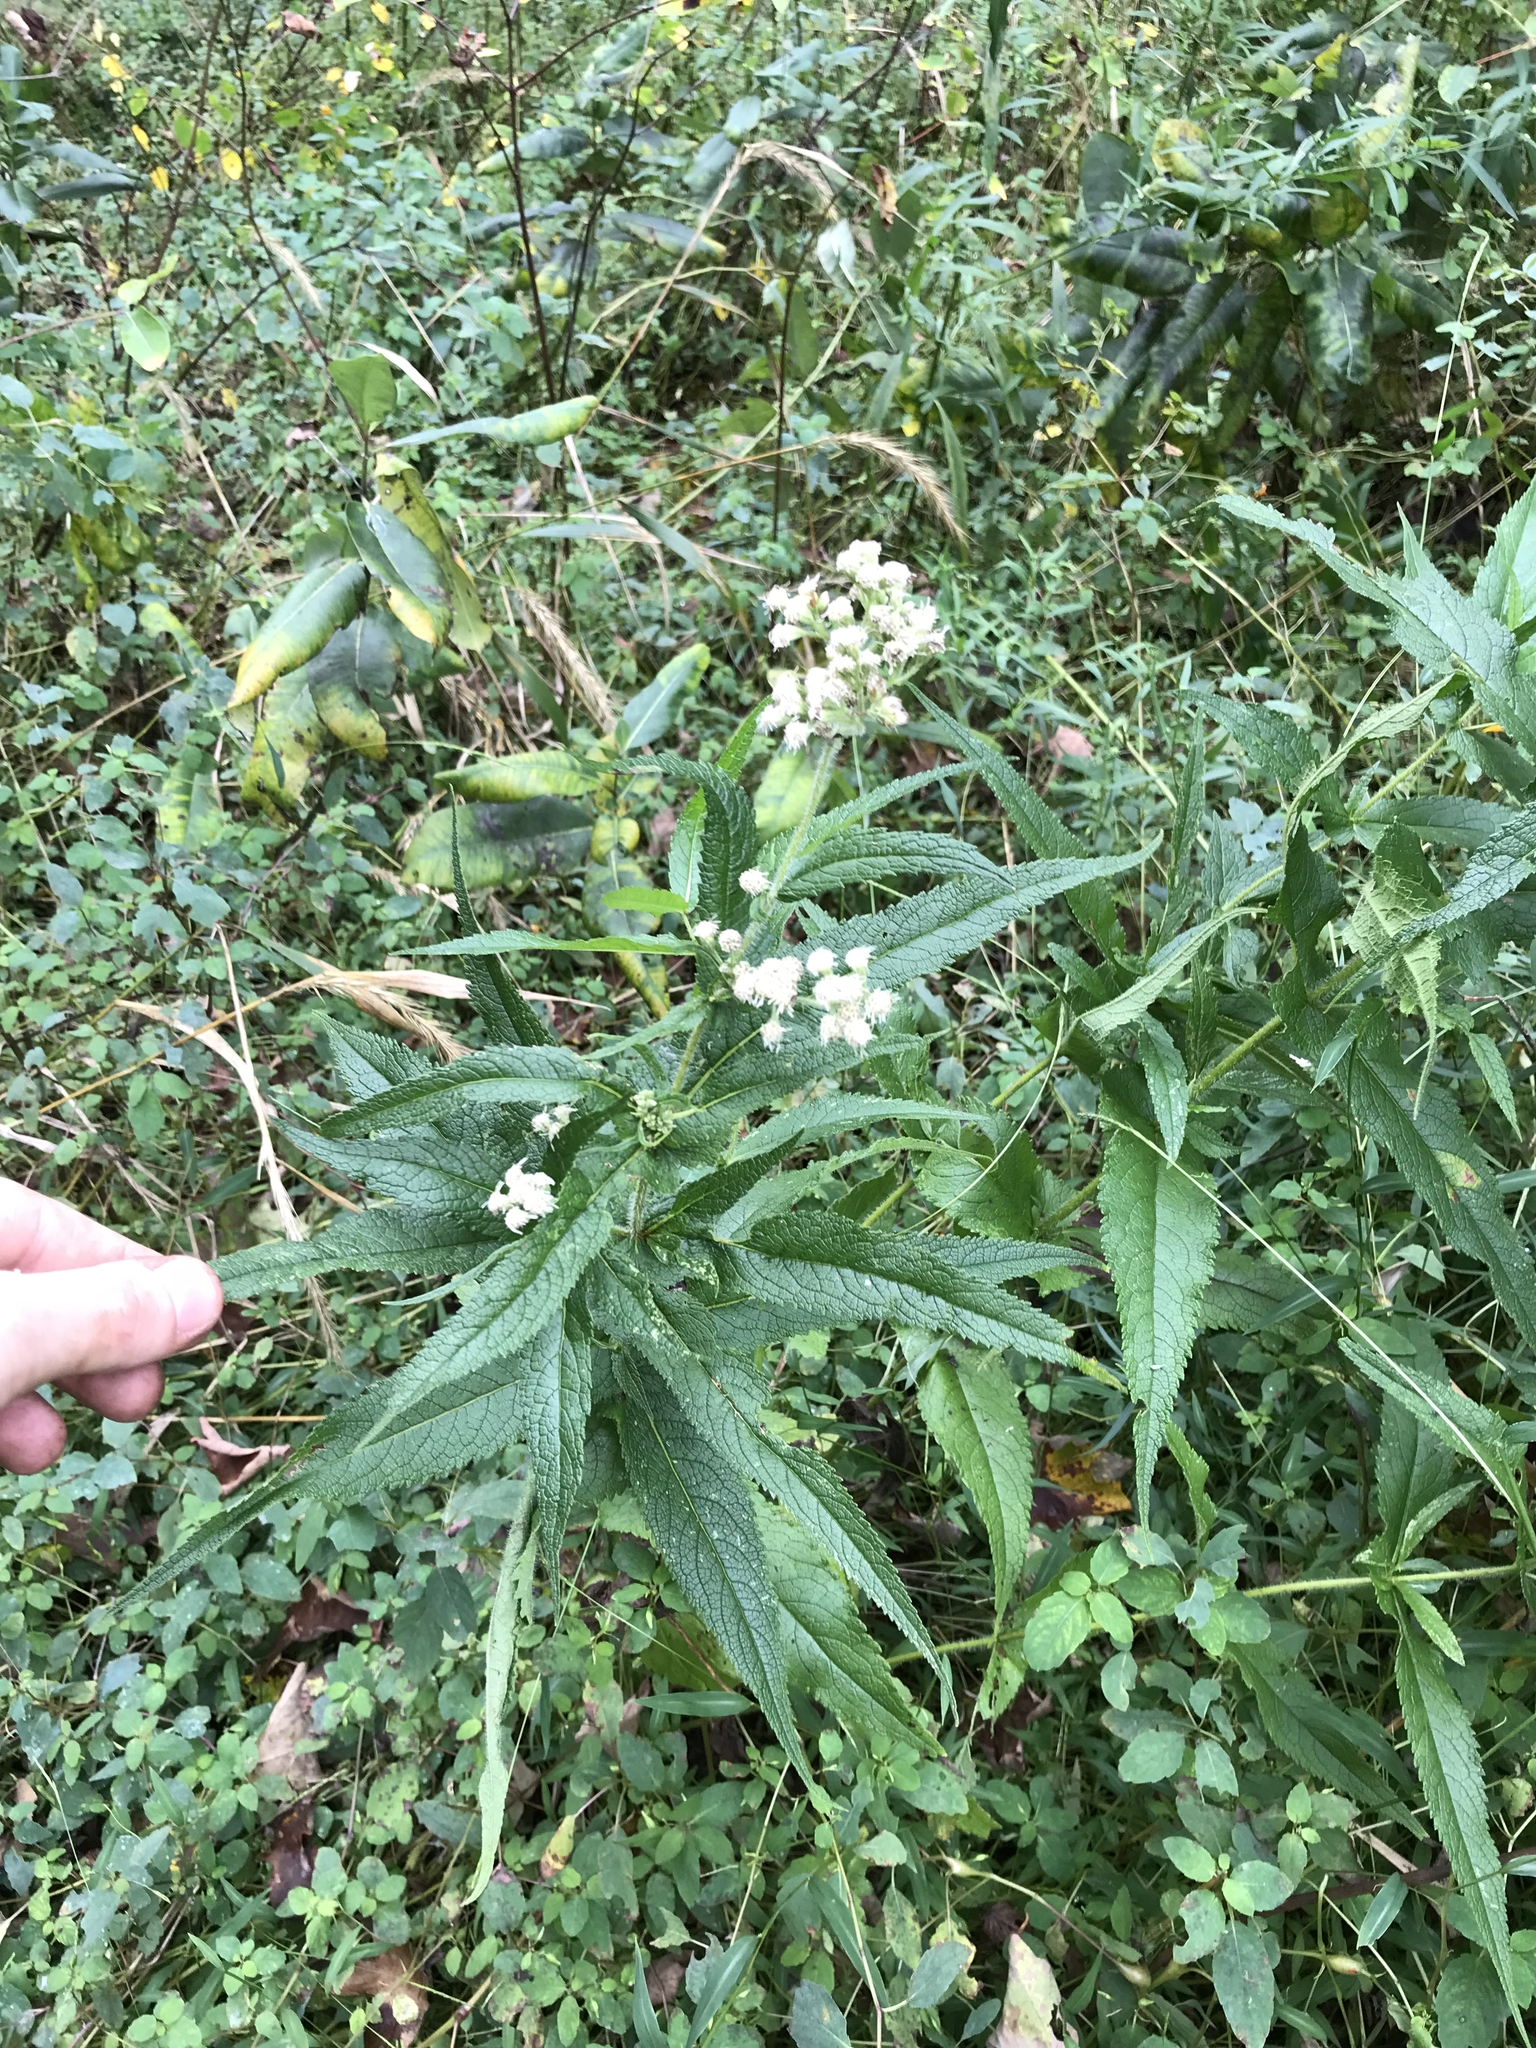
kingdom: Plantae
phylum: Tracheophyta
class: Magnoliopsida
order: Asterales
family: Asteraceae
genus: Eupatorium
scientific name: Eupatorium perfoliatum
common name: Boneset
